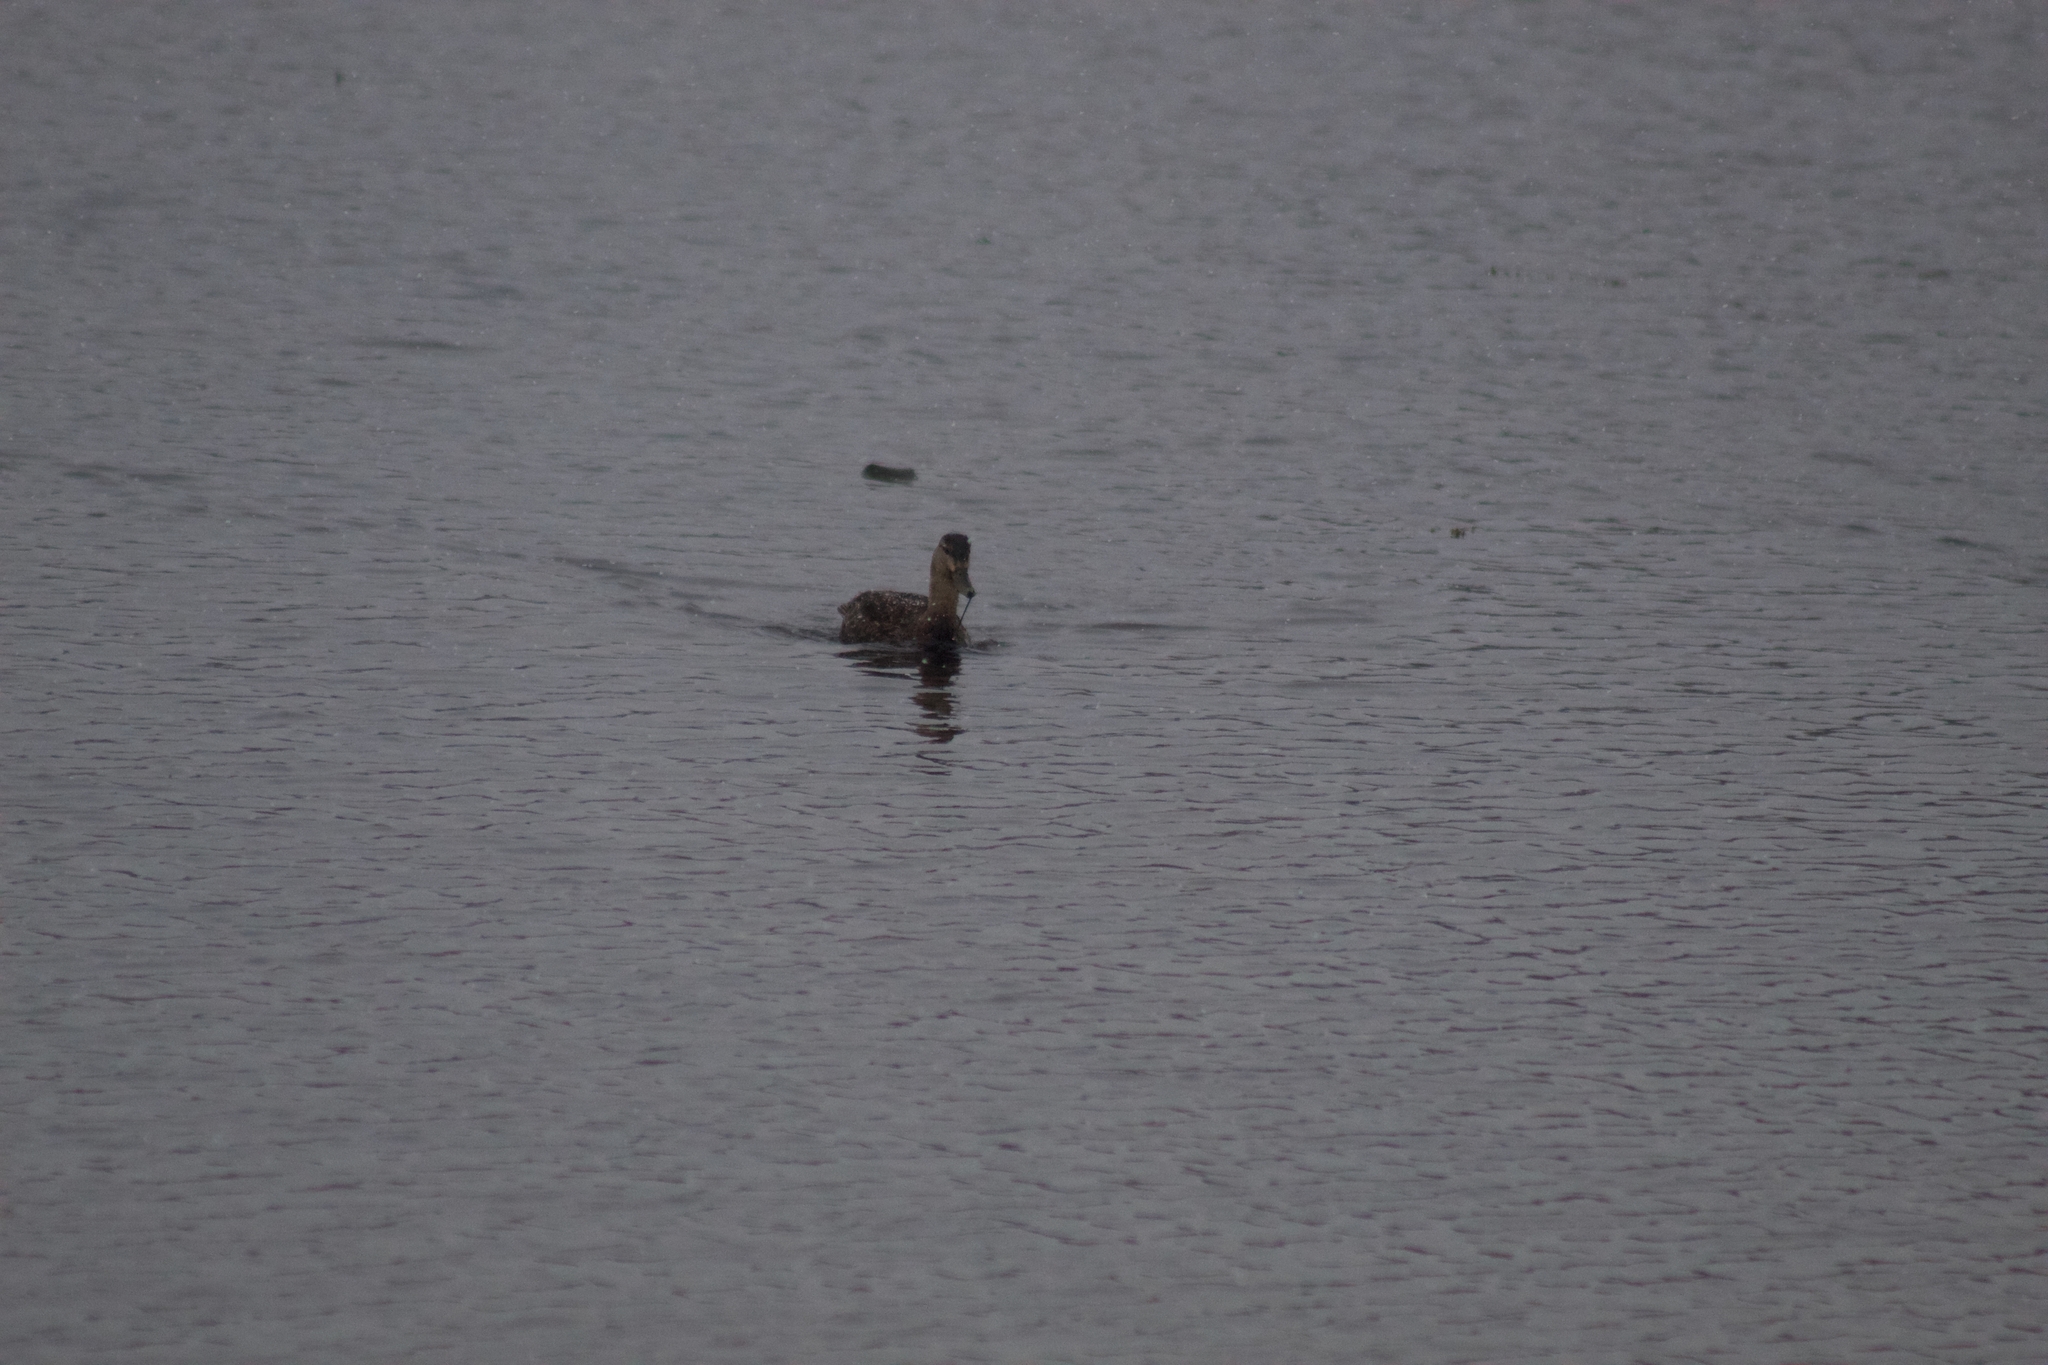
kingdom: Animalia
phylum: Chordata
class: Aves
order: Anseriformes
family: Anatidae
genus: Anas
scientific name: Anas rubripes
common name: American black duck
